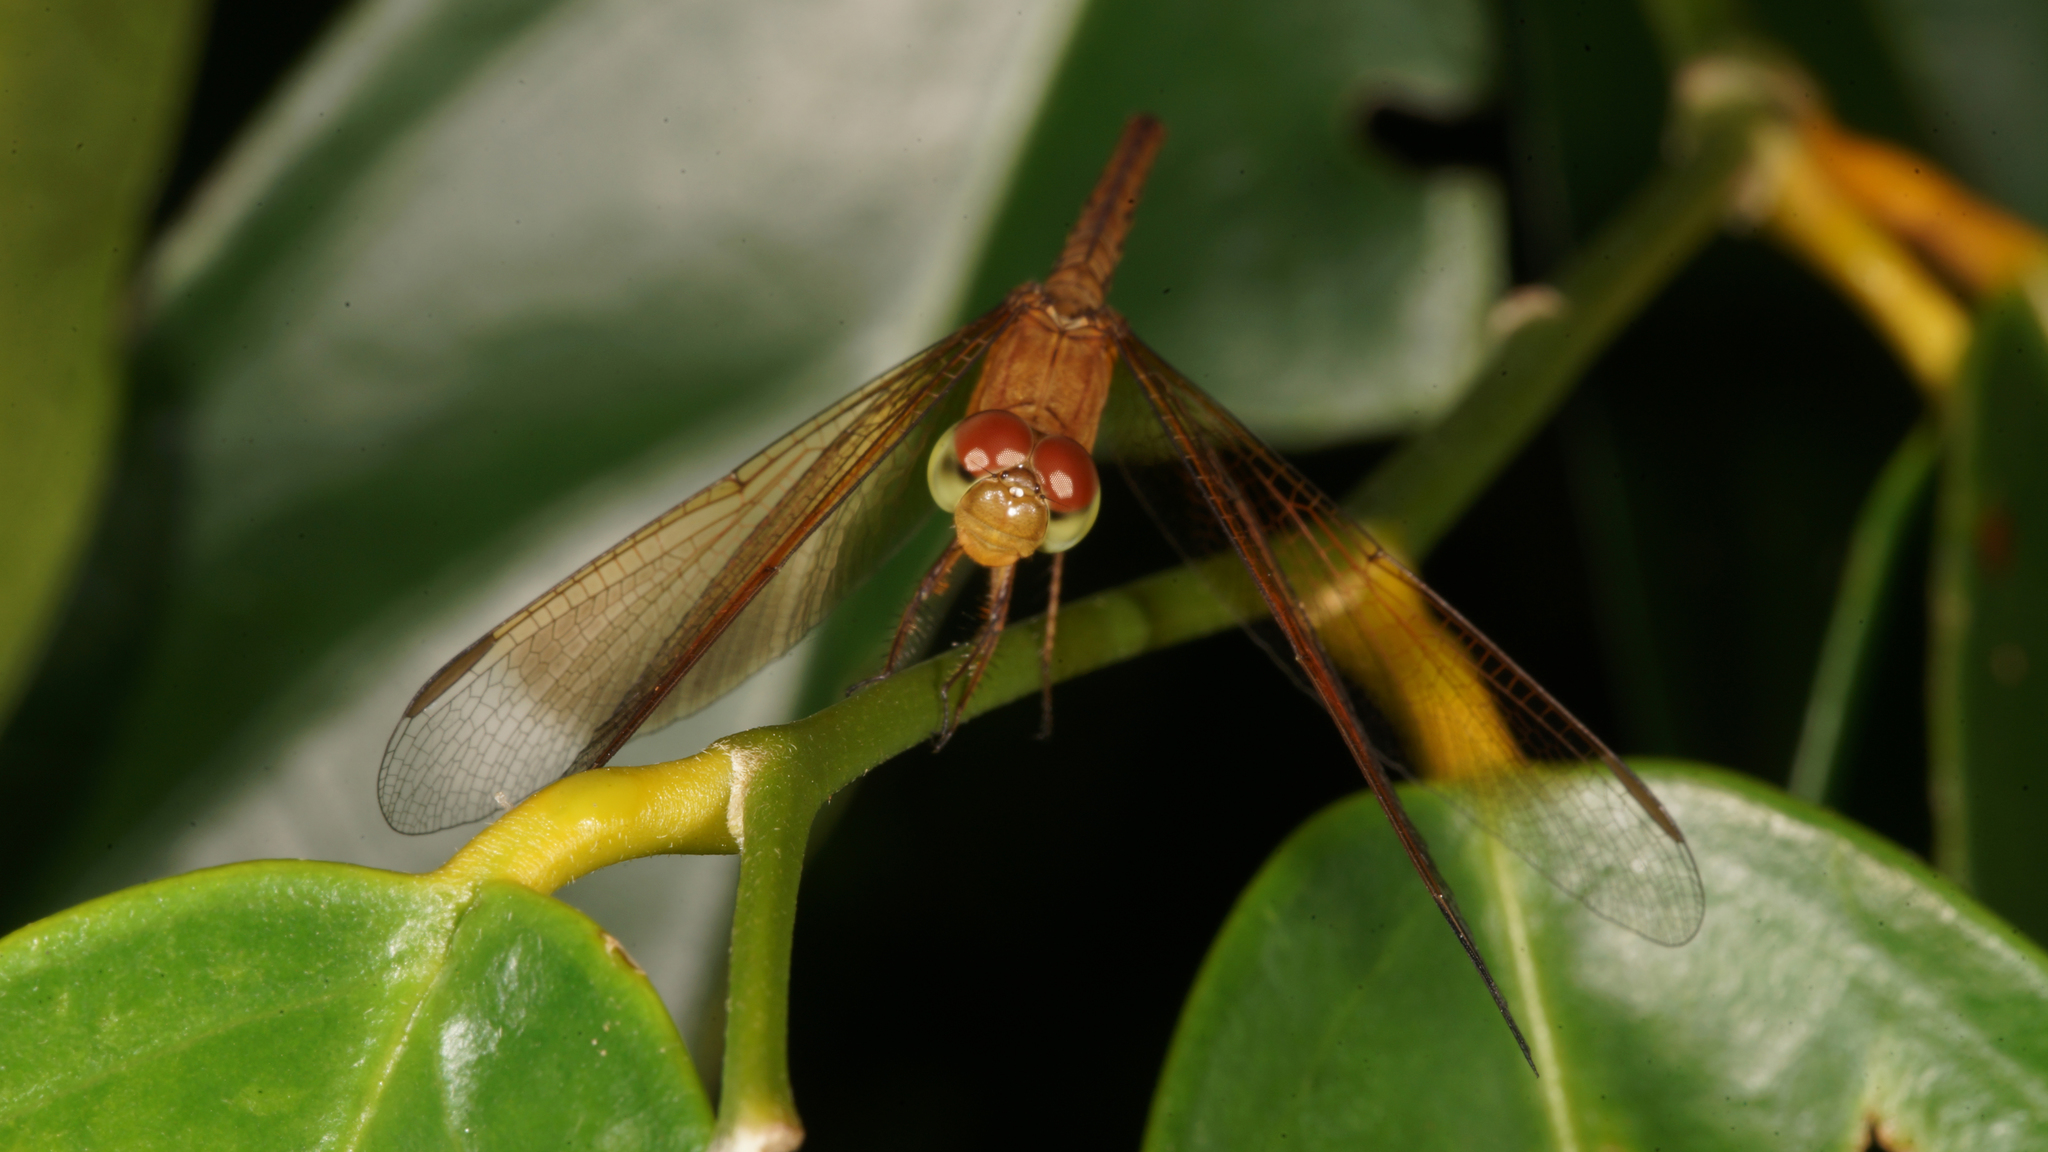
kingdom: Animalia
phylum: Arthropoda
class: Insecta
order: Odonata
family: Libellulidae
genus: Neurothemis
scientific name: Neurothemis fluctuans
